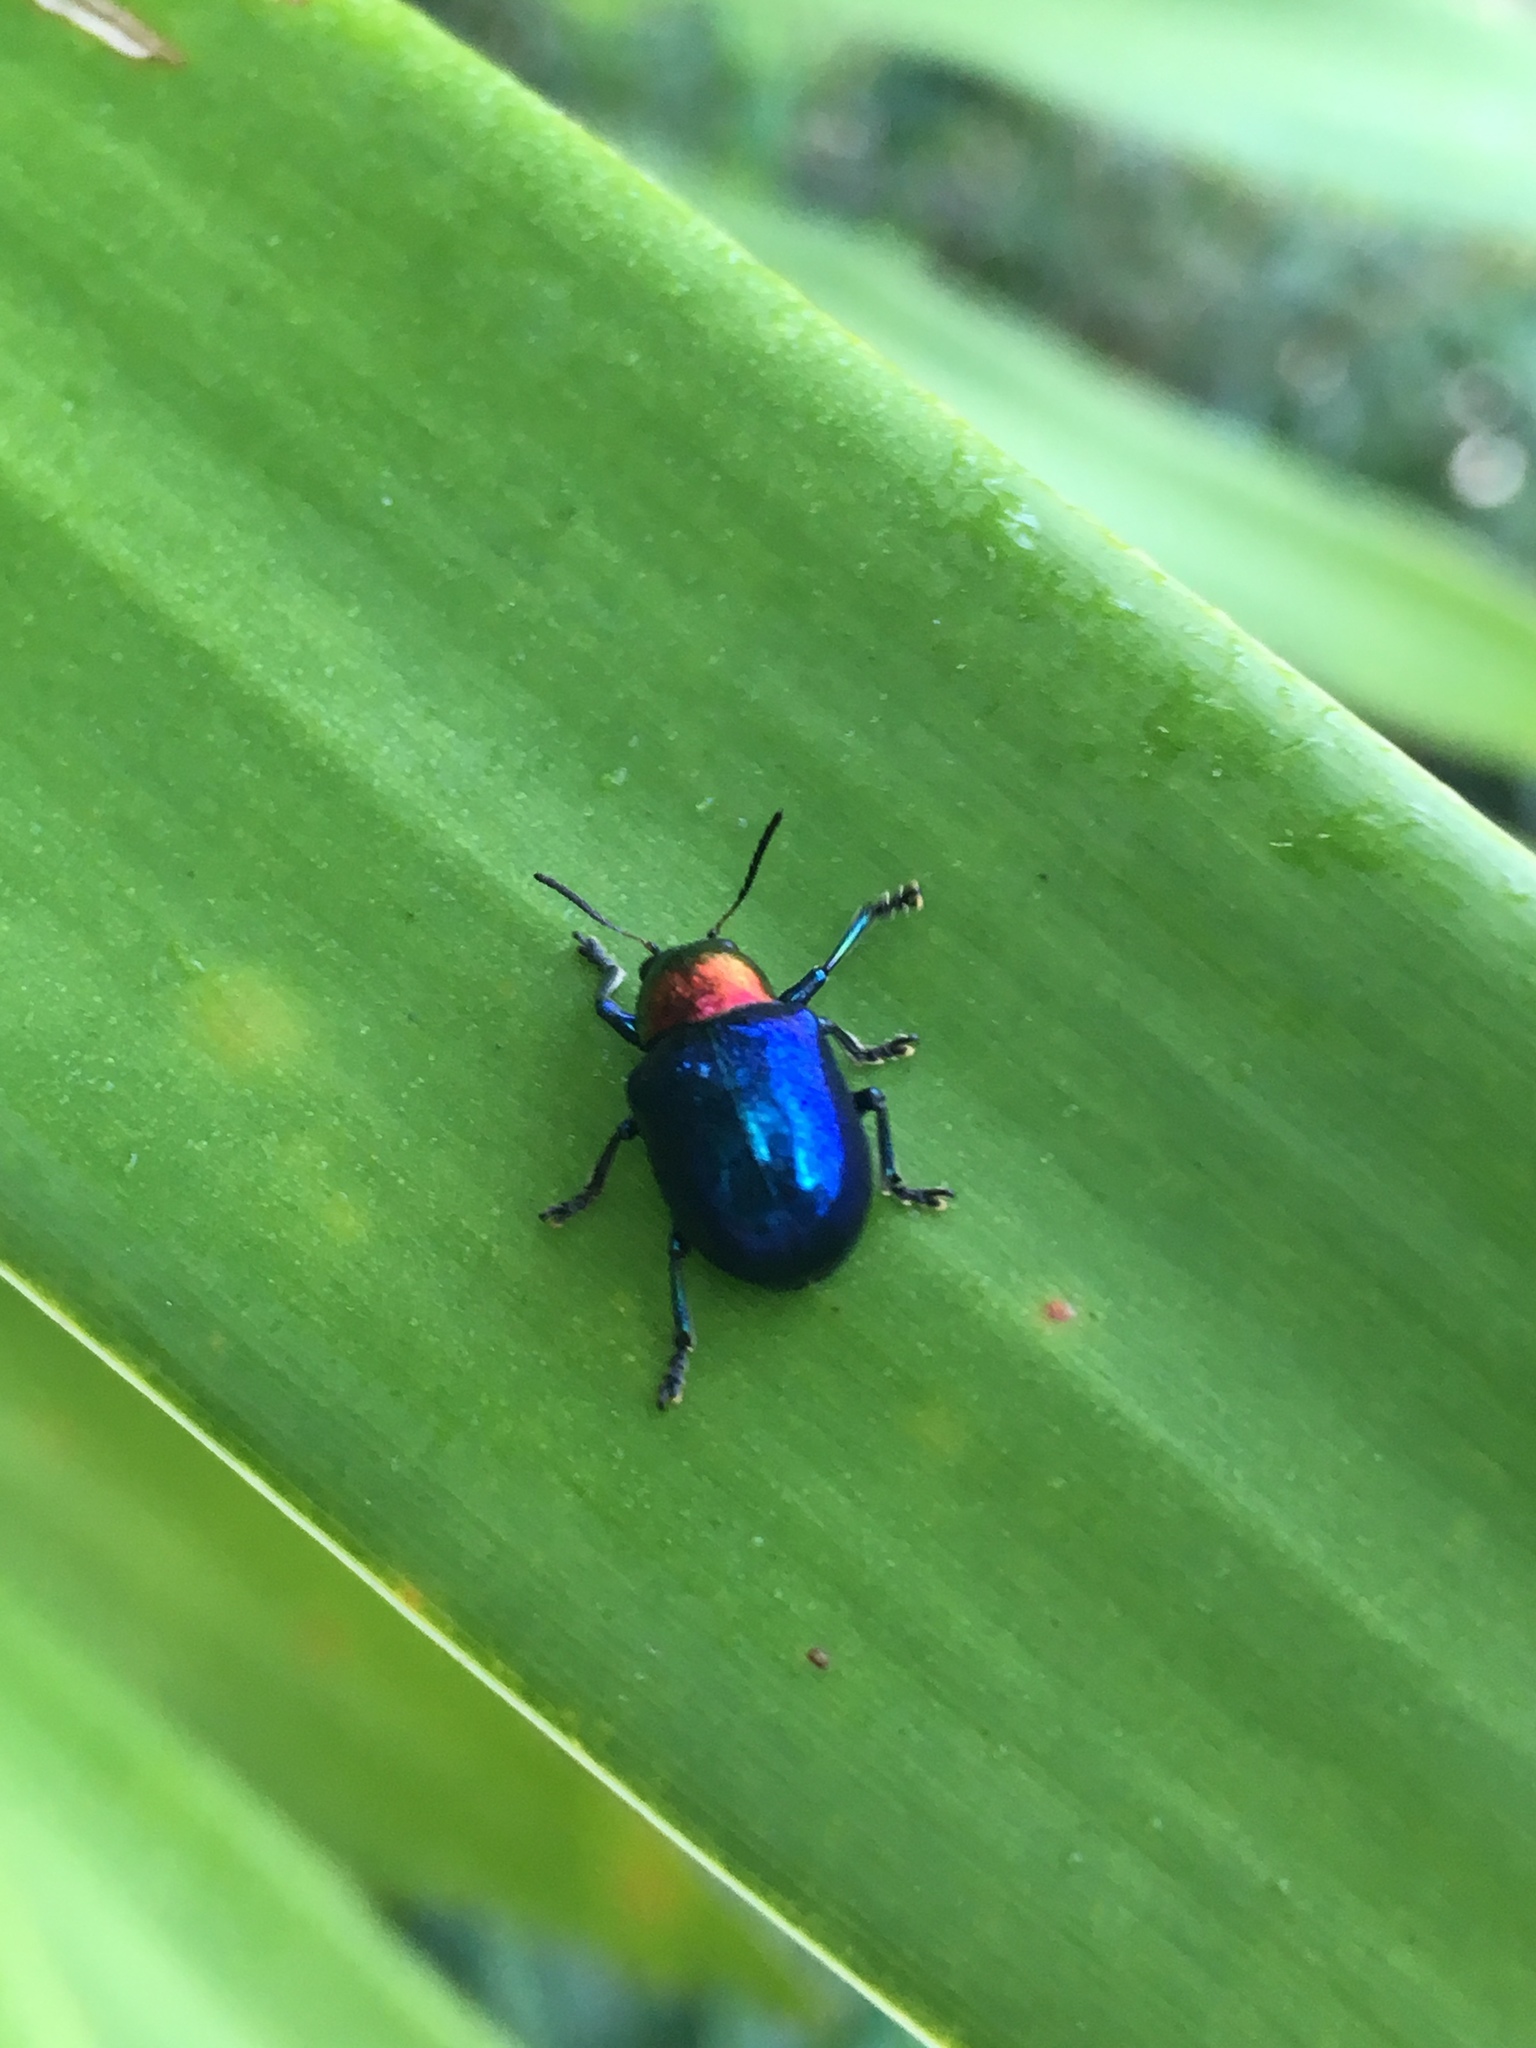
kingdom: Animalia
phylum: Arthropoda
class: Insecta
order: Coleoptera
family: Chrysomelidae
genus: Parheminodes
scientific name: Parheminodes
